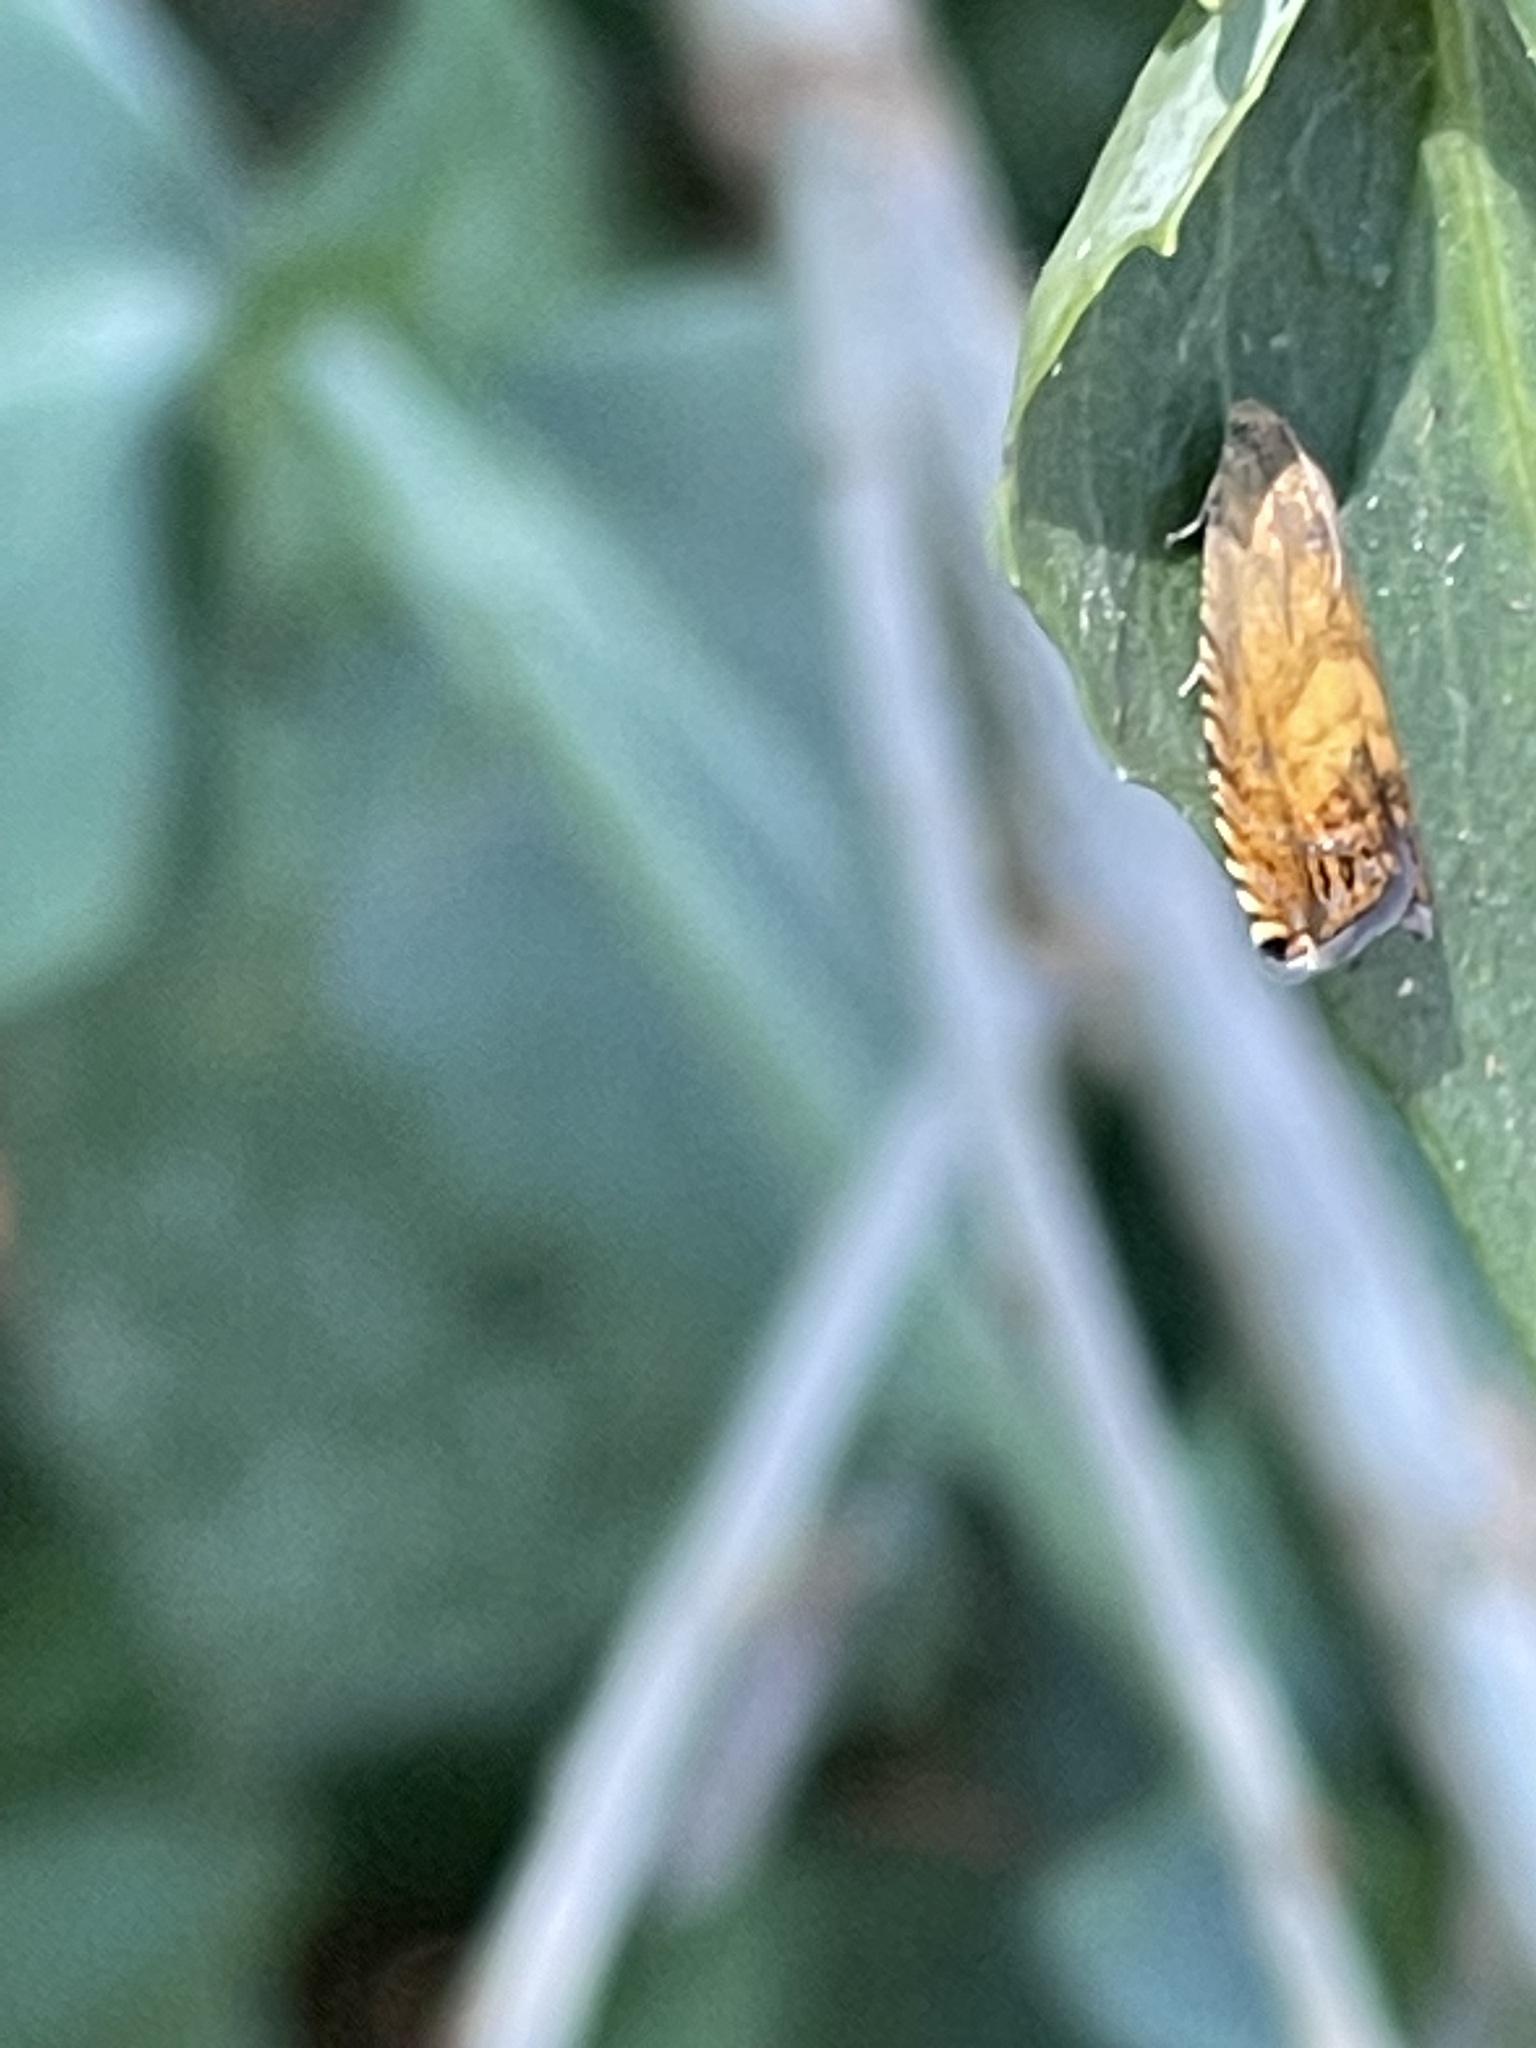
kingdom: Animalia
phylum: Arthropoda
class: Insecta
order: Lepidoptera
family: Tortricidae
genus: Pammene
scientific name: Pammene aurita
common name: Sycamore piercer
